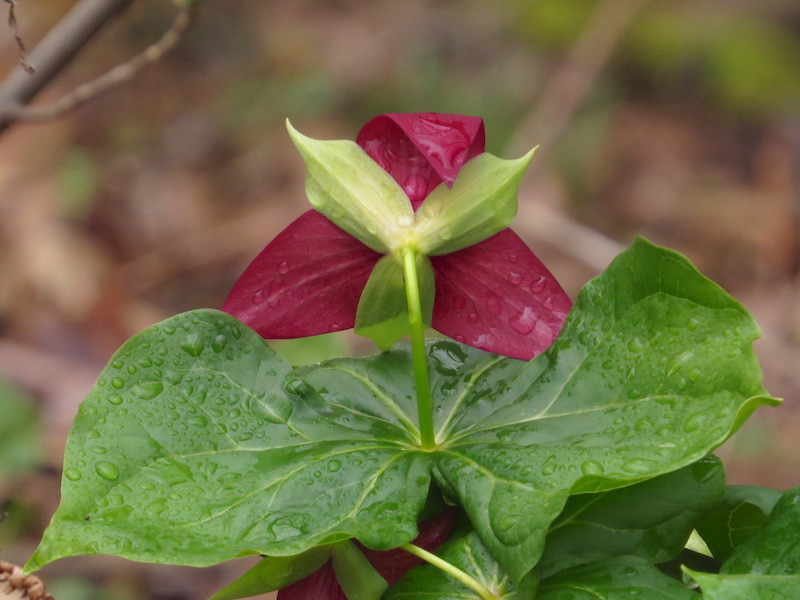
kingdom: Plantae
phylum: Tracheophyta
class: Liliopsida
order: Liliales
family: Melanthiaceae
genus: Trillium
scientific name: Trillium erectum
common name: Purple trillium
